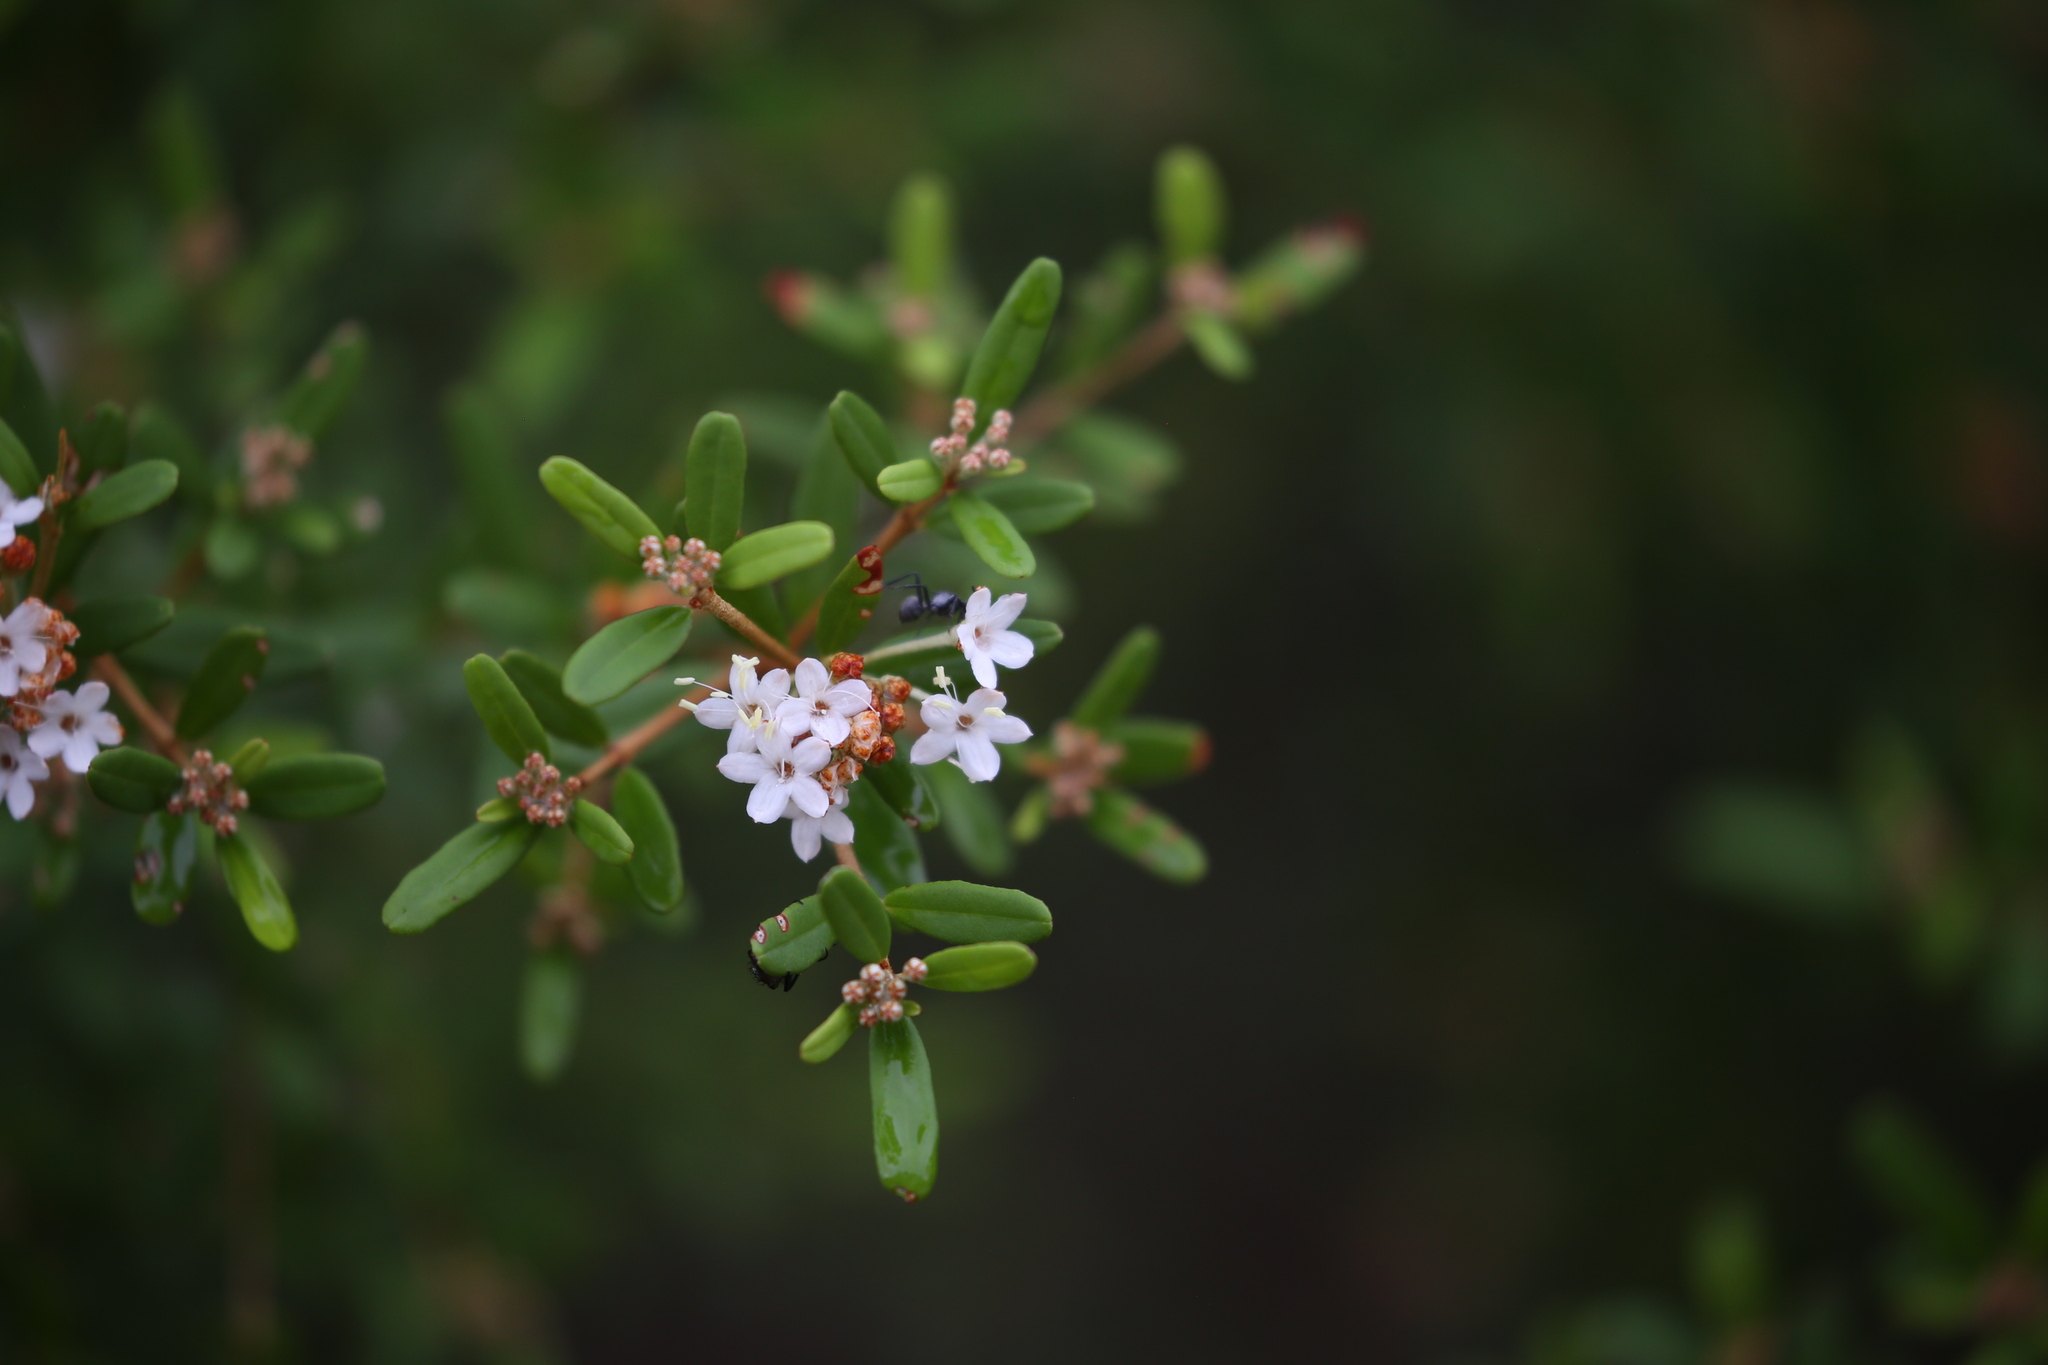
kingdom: Plantae
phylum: Tracheophyta
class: Magnoliopsida
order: Sapindales
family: Rutaceae
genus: Phebalium
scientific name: Phebalium woombye
